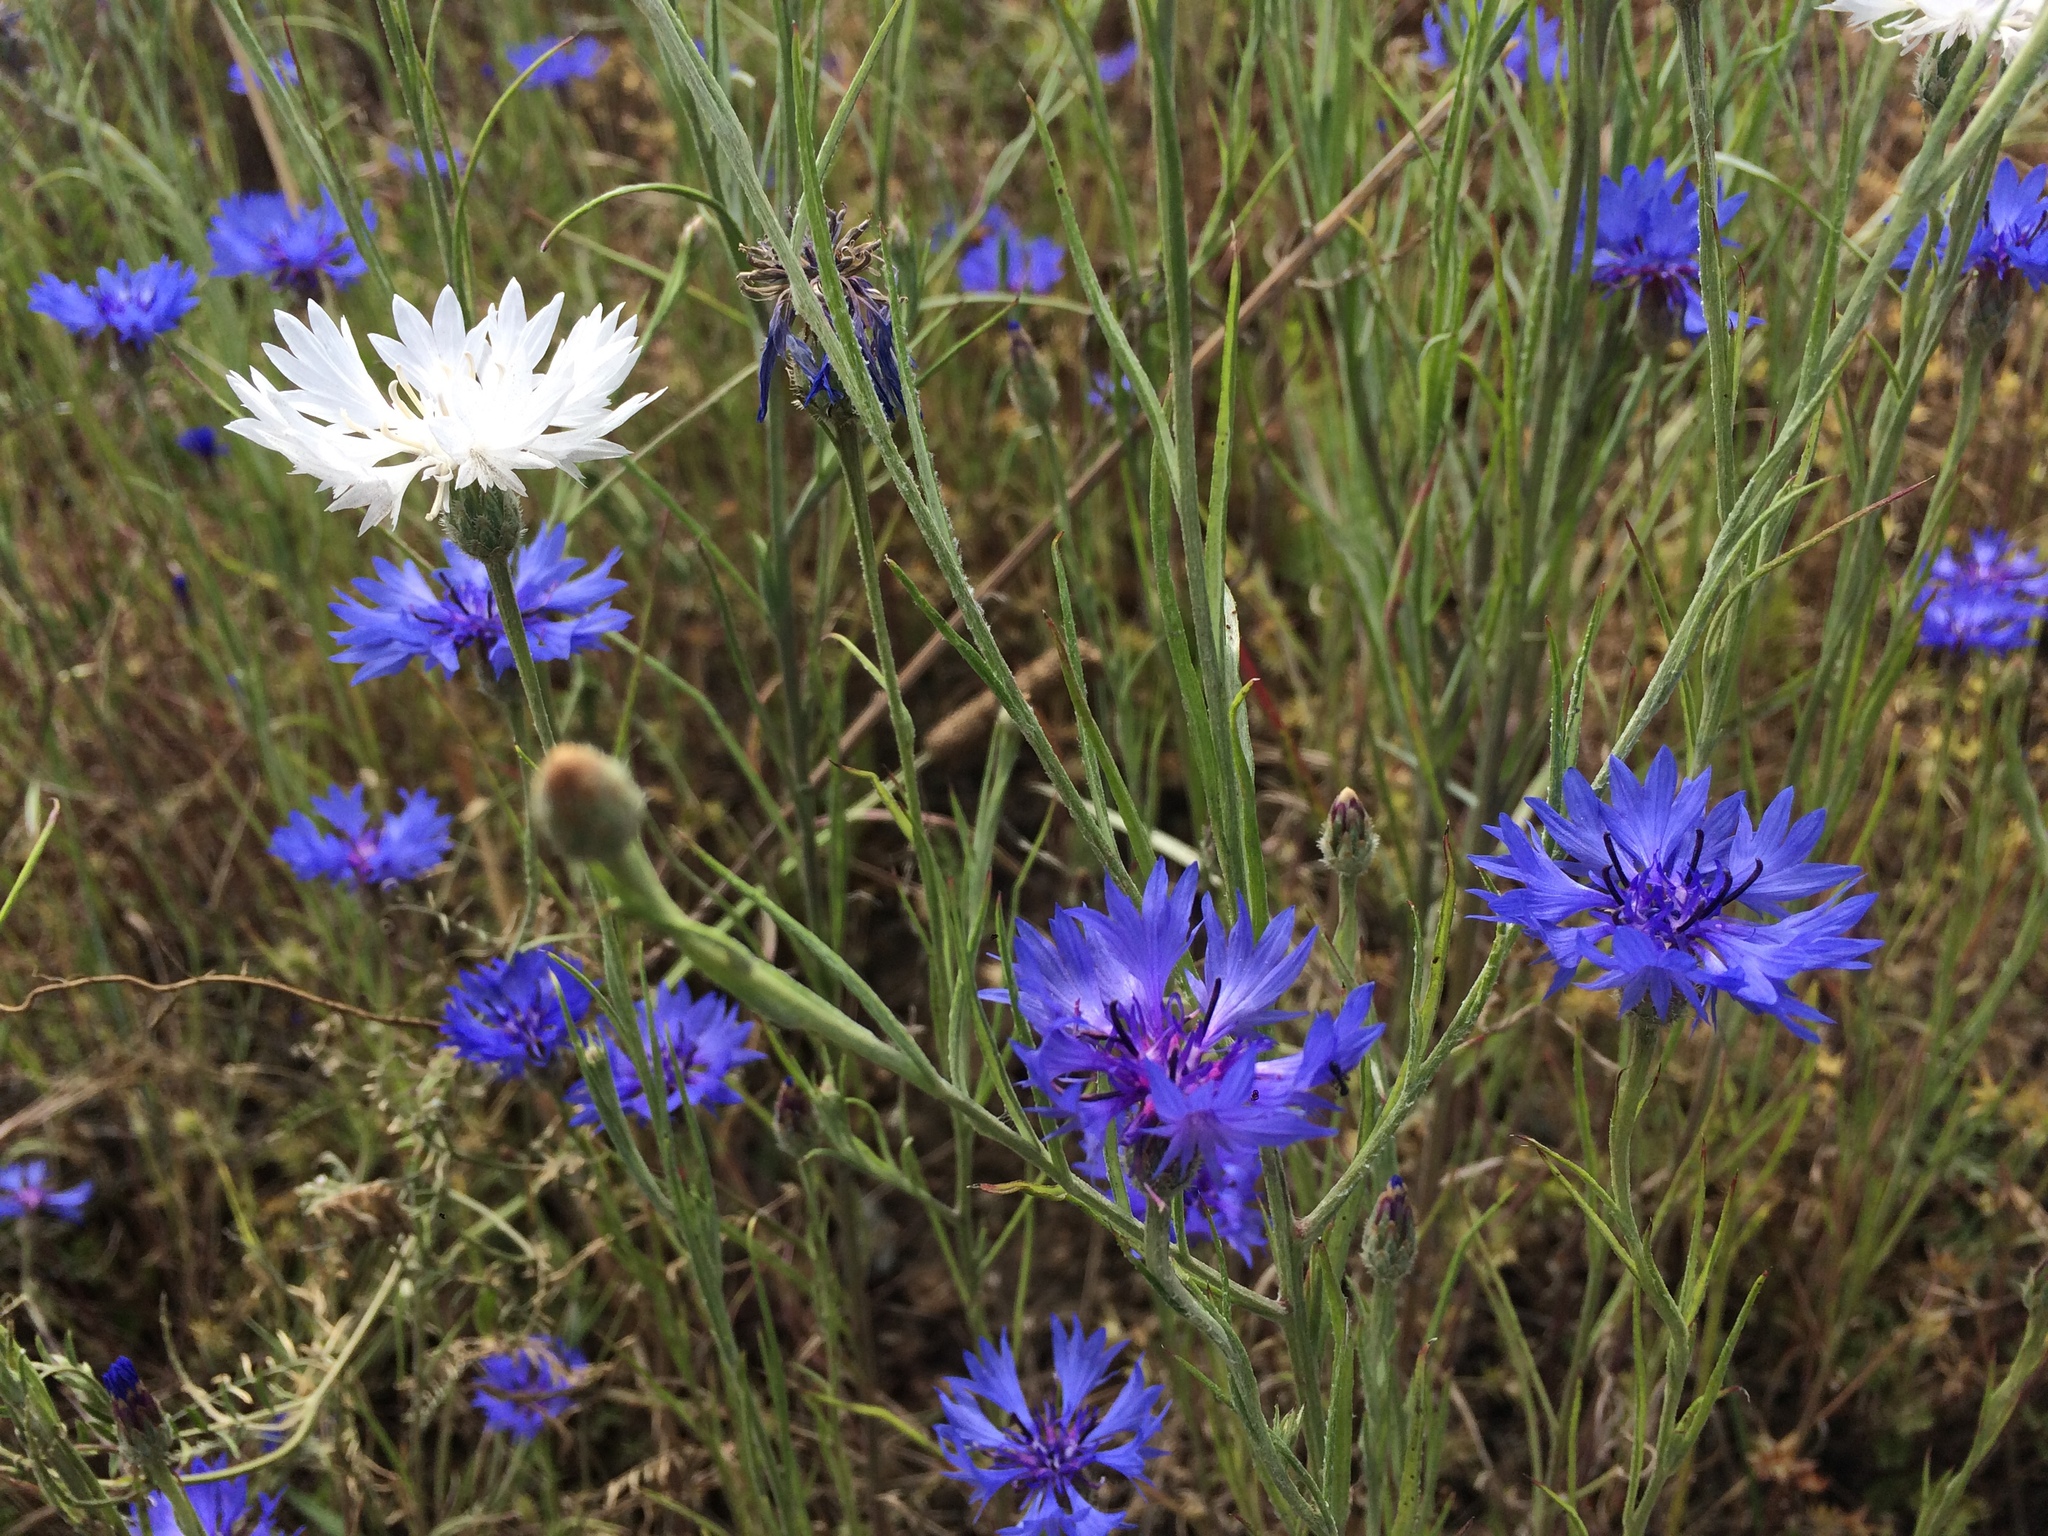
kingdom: Plantae
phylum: Tracheophyta
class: Magnoliopsida
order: Asterales
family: Asteraceae
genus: Centaurea
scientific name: Centaurea cyanus
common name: Cornflower
